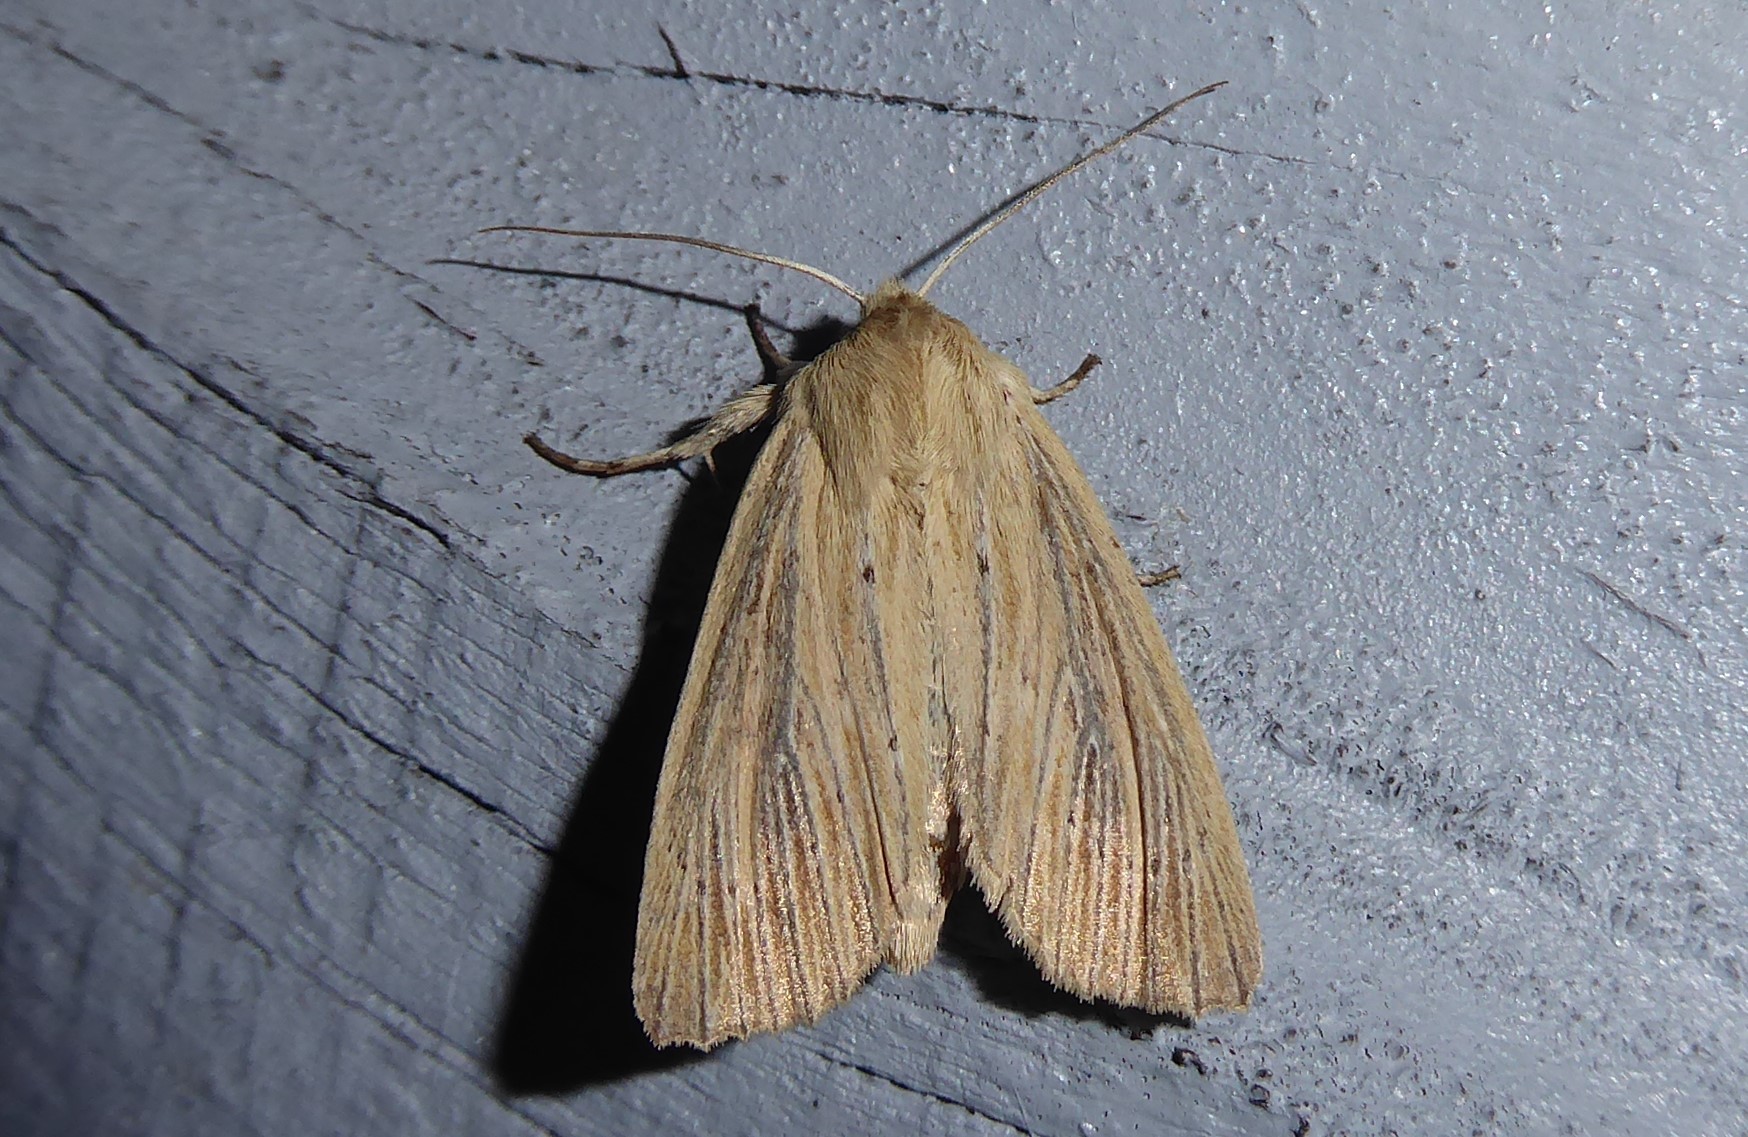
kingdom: Animalia
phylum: Arthropoda
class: Insecta
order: Lepidoptera
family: Noctuidae
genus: Ichneutica
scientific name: Ichneutica arotis
